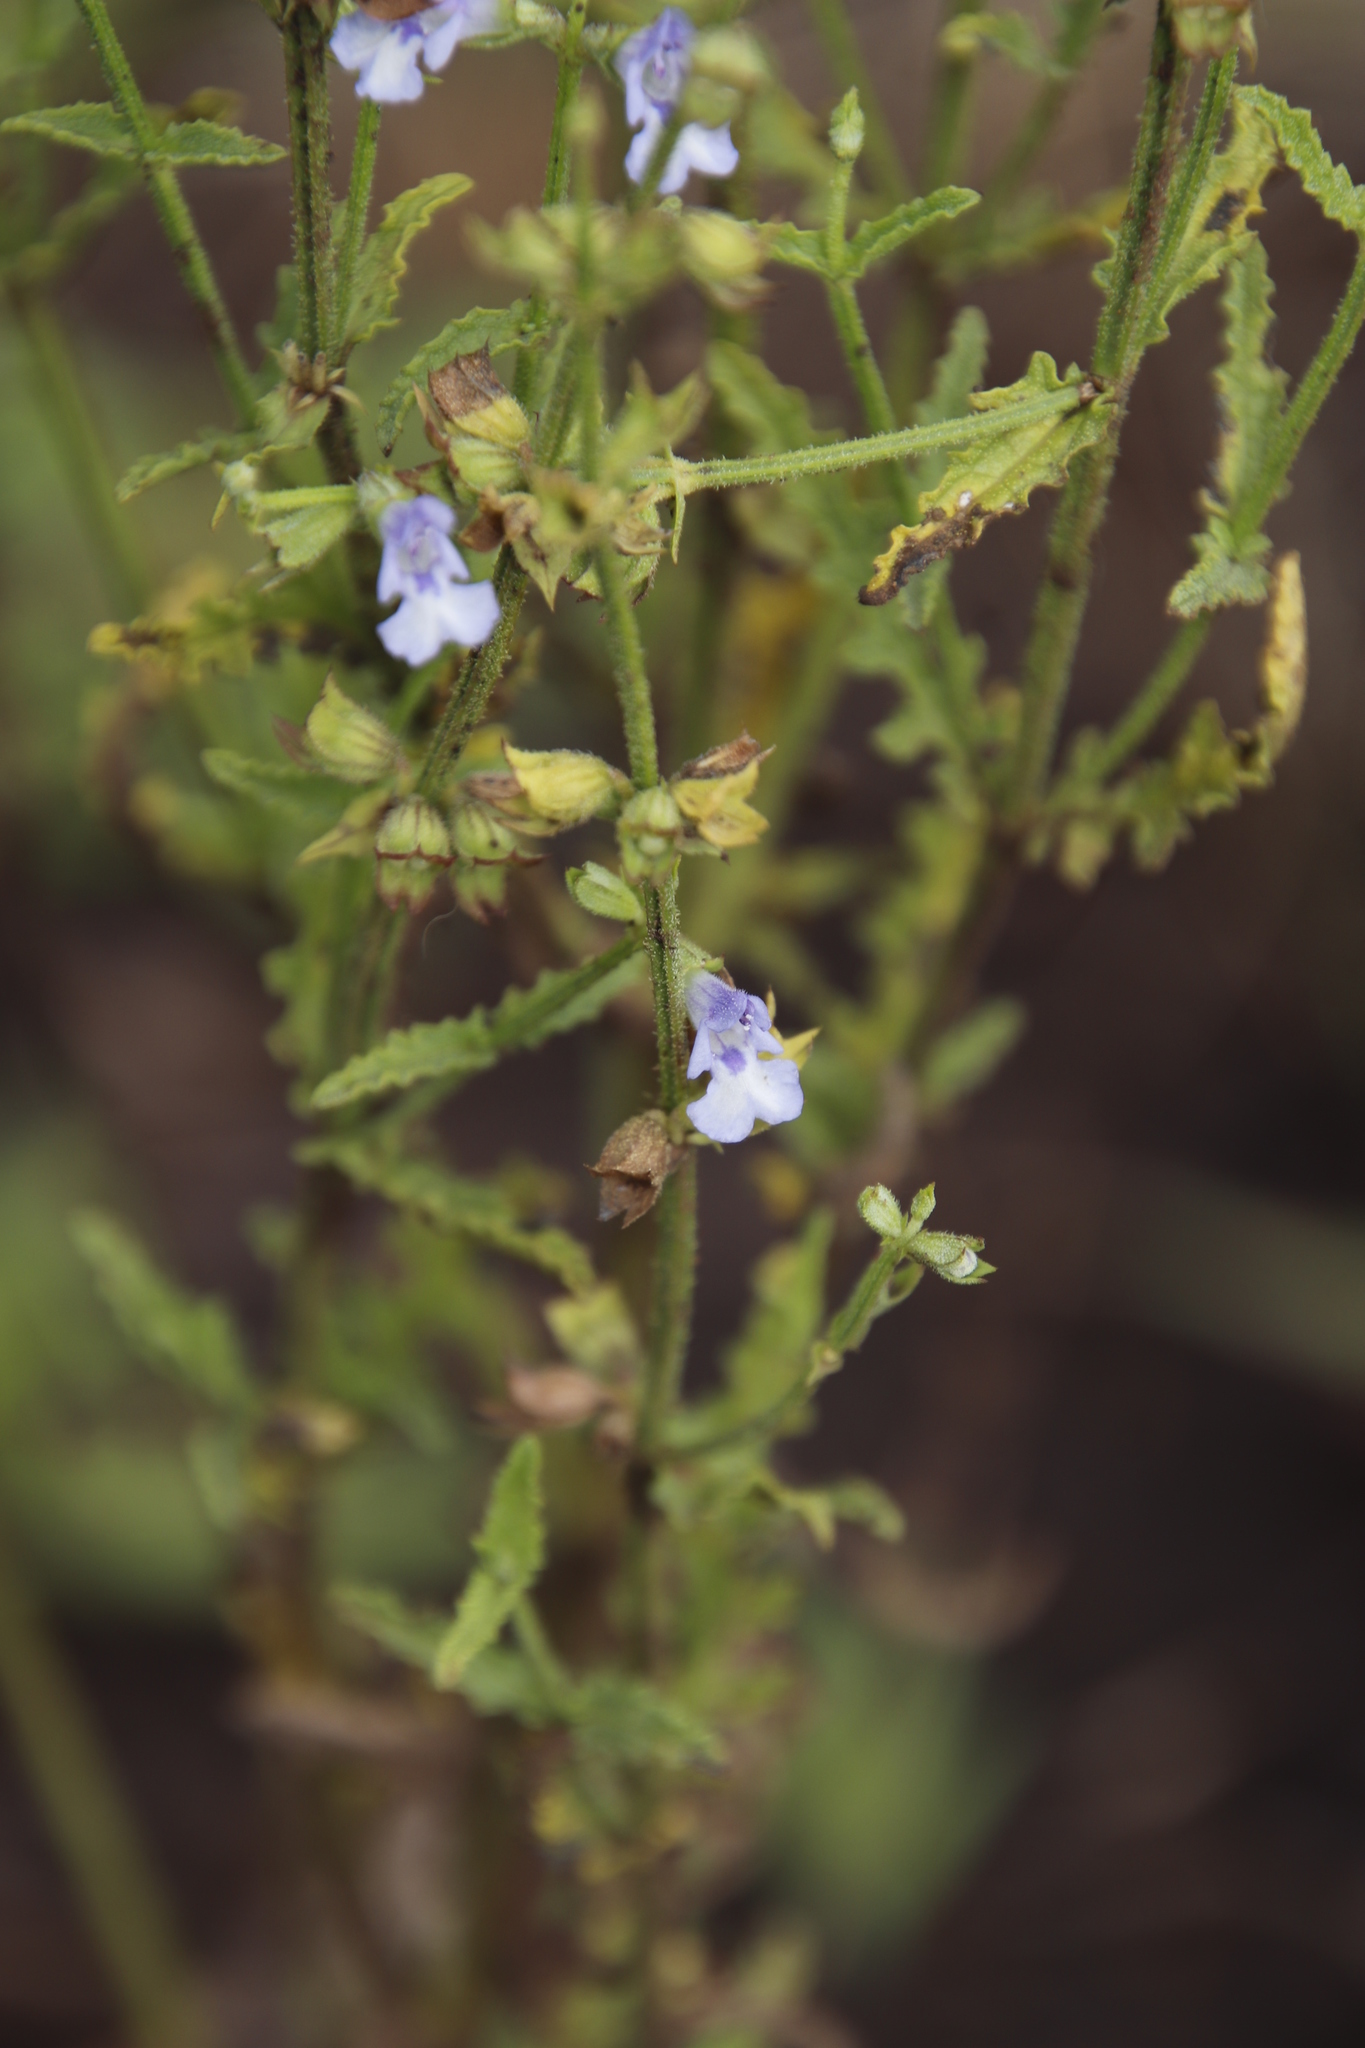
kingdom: Plantae
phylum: Tracheophyta
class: Magnoliopsida
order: Lamiales
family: Lamiaceae
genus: Salvia
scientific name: Salvia stenophylla
